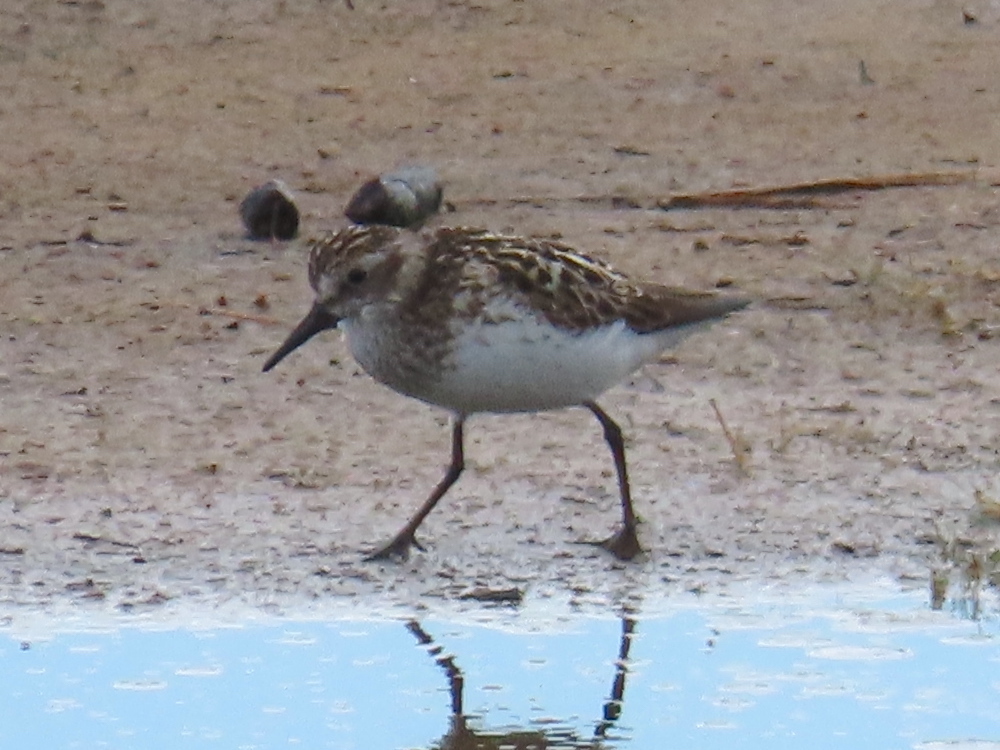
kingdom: Animalia
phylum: Chordata
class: Aves
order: Charadriiformes
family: Scolopacidae
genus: Calidris
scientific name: Calidris pusilla
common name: Semipalmated sandpiper
